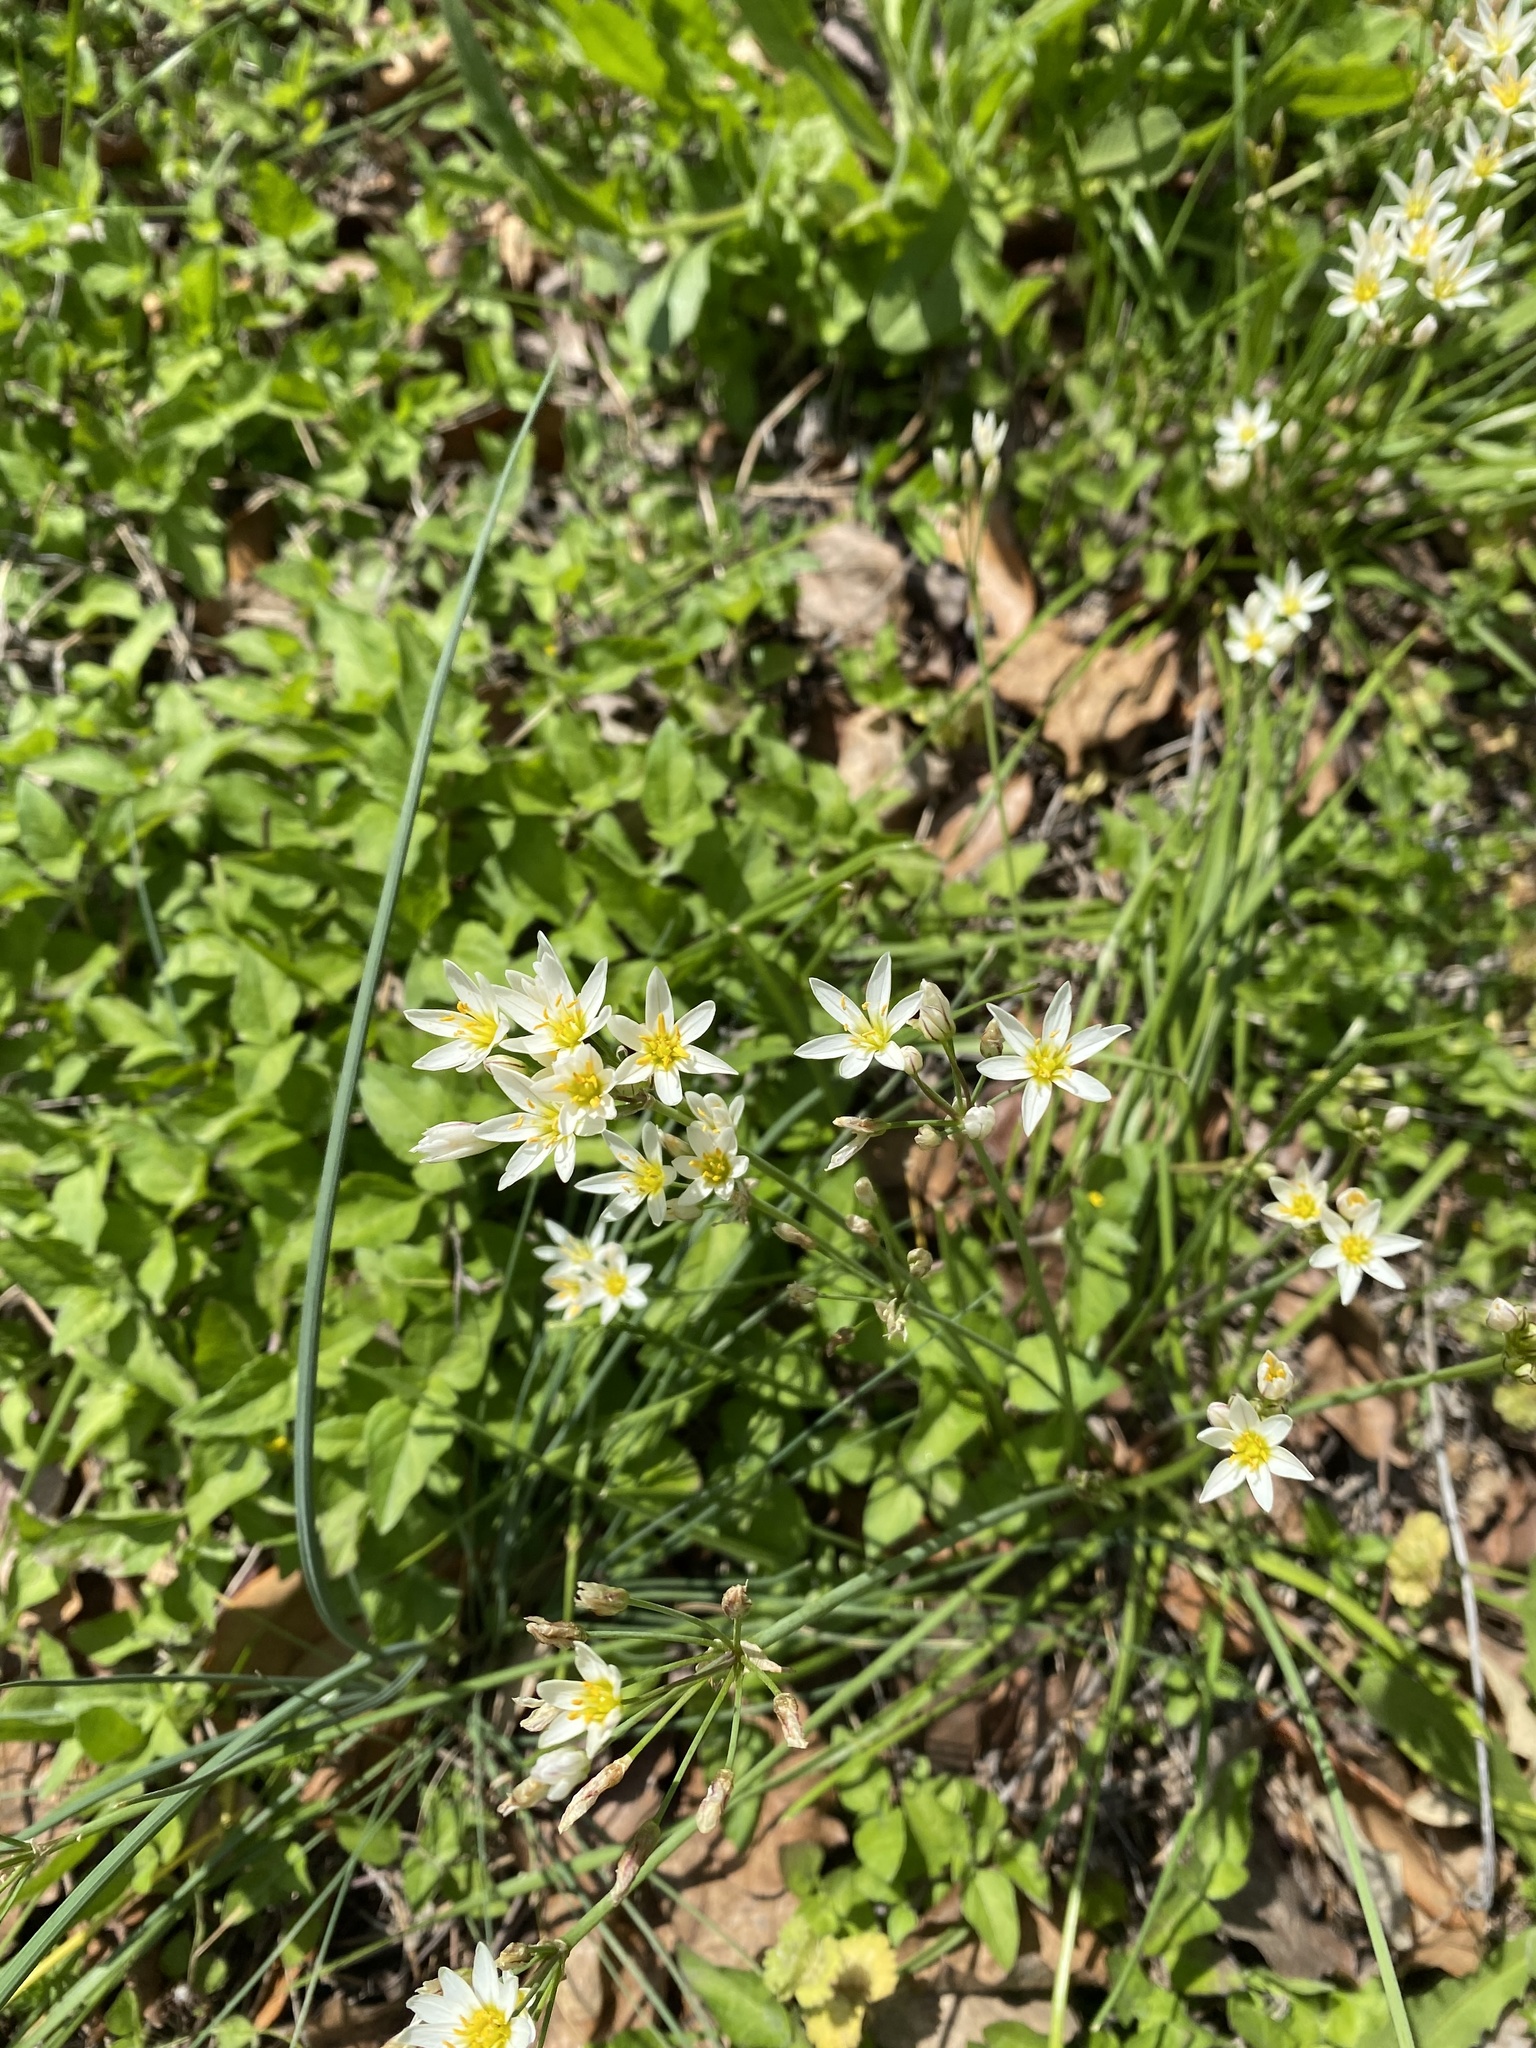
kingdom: Plantae
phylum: Tracheophyta
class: Liliopsida
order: Asparagales
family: Amaryllidaceae
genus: Nothoscordum
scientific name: Nothoscordum bivalve
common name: Crow-poison
